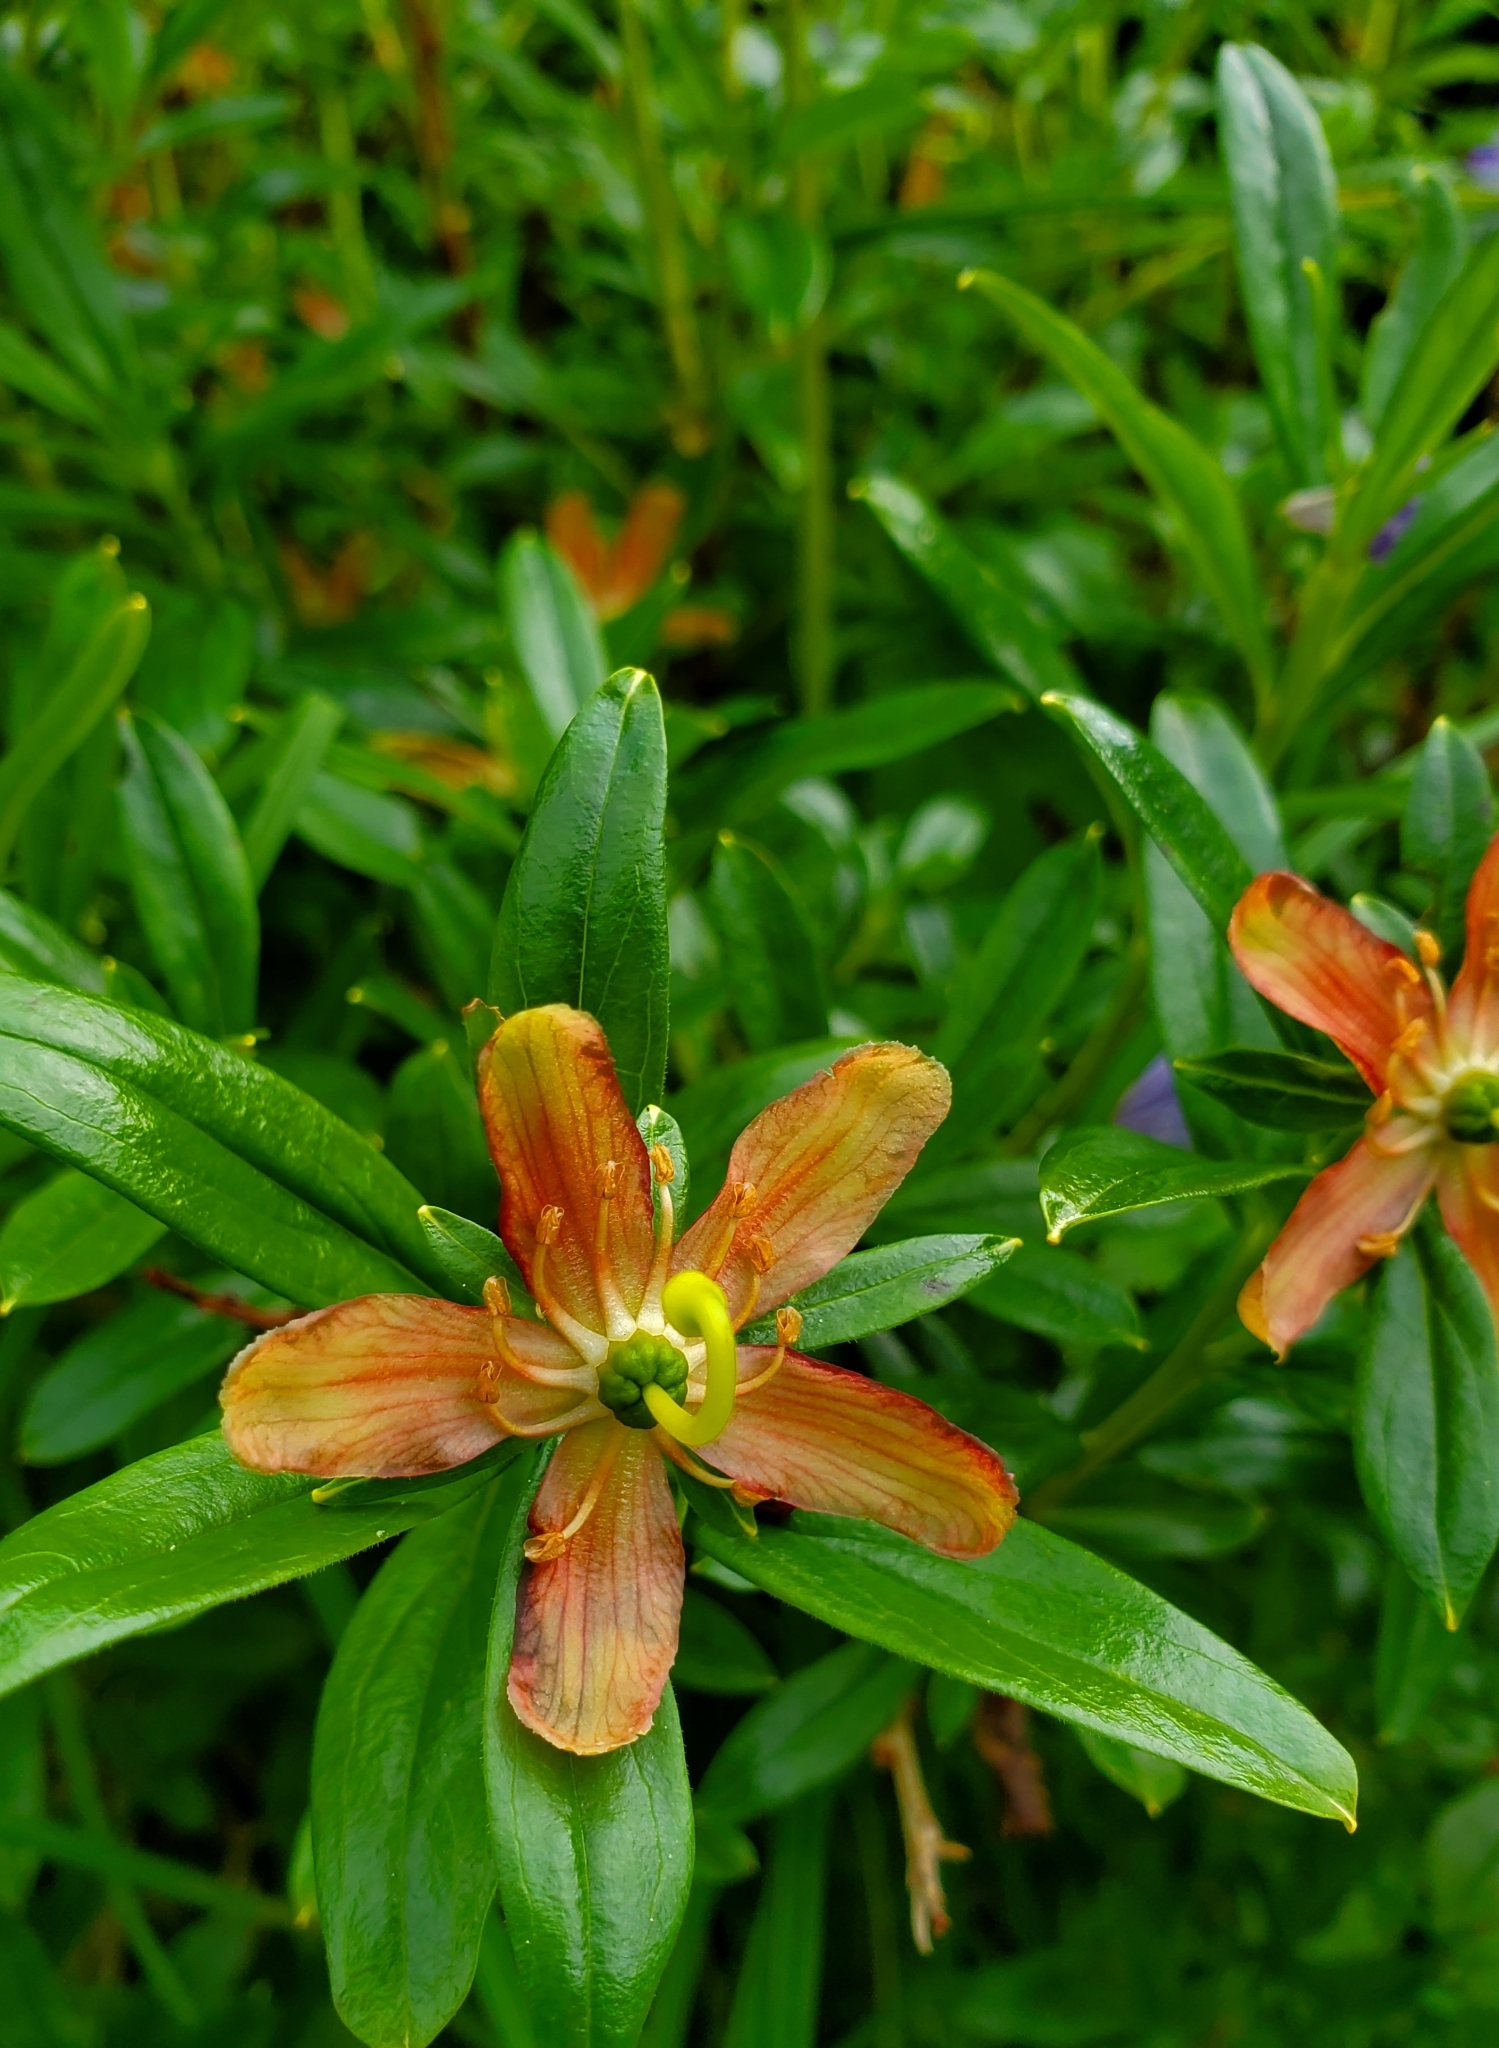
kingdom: Plantae
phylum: Tracheophyta
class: Magnoliopsida
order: Ericales
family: Ericaceae
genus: Elliottia
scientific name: Elliottia pyroliflora
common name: Copperbush
